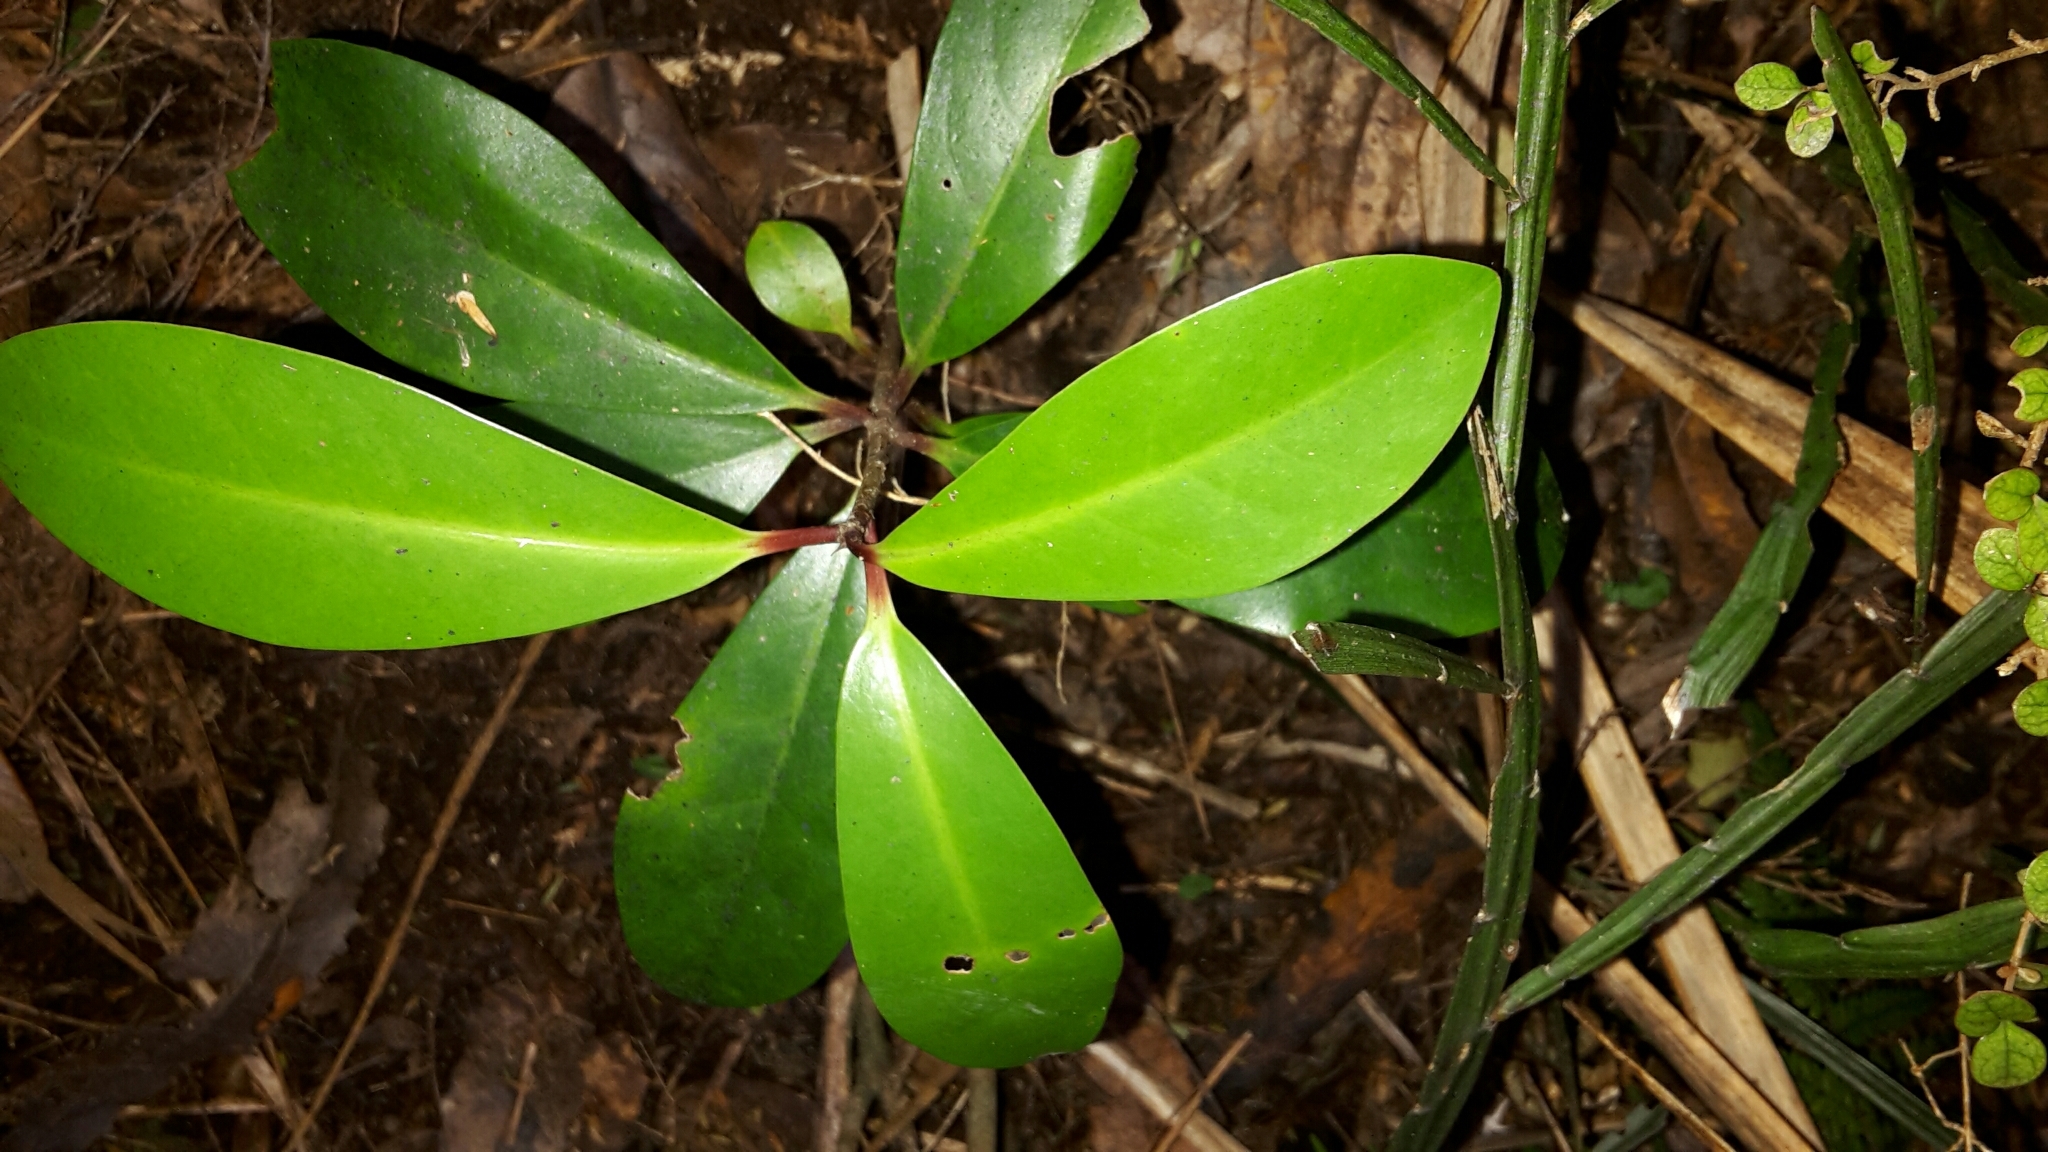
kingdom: Plantae
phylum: Tracheophyta
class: Magnoliopsida
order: Cucurbitales
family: Corynocarpaceae
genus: Corynocarpus
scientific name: Corynocarpus laevigatus
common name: New zealand laurel
